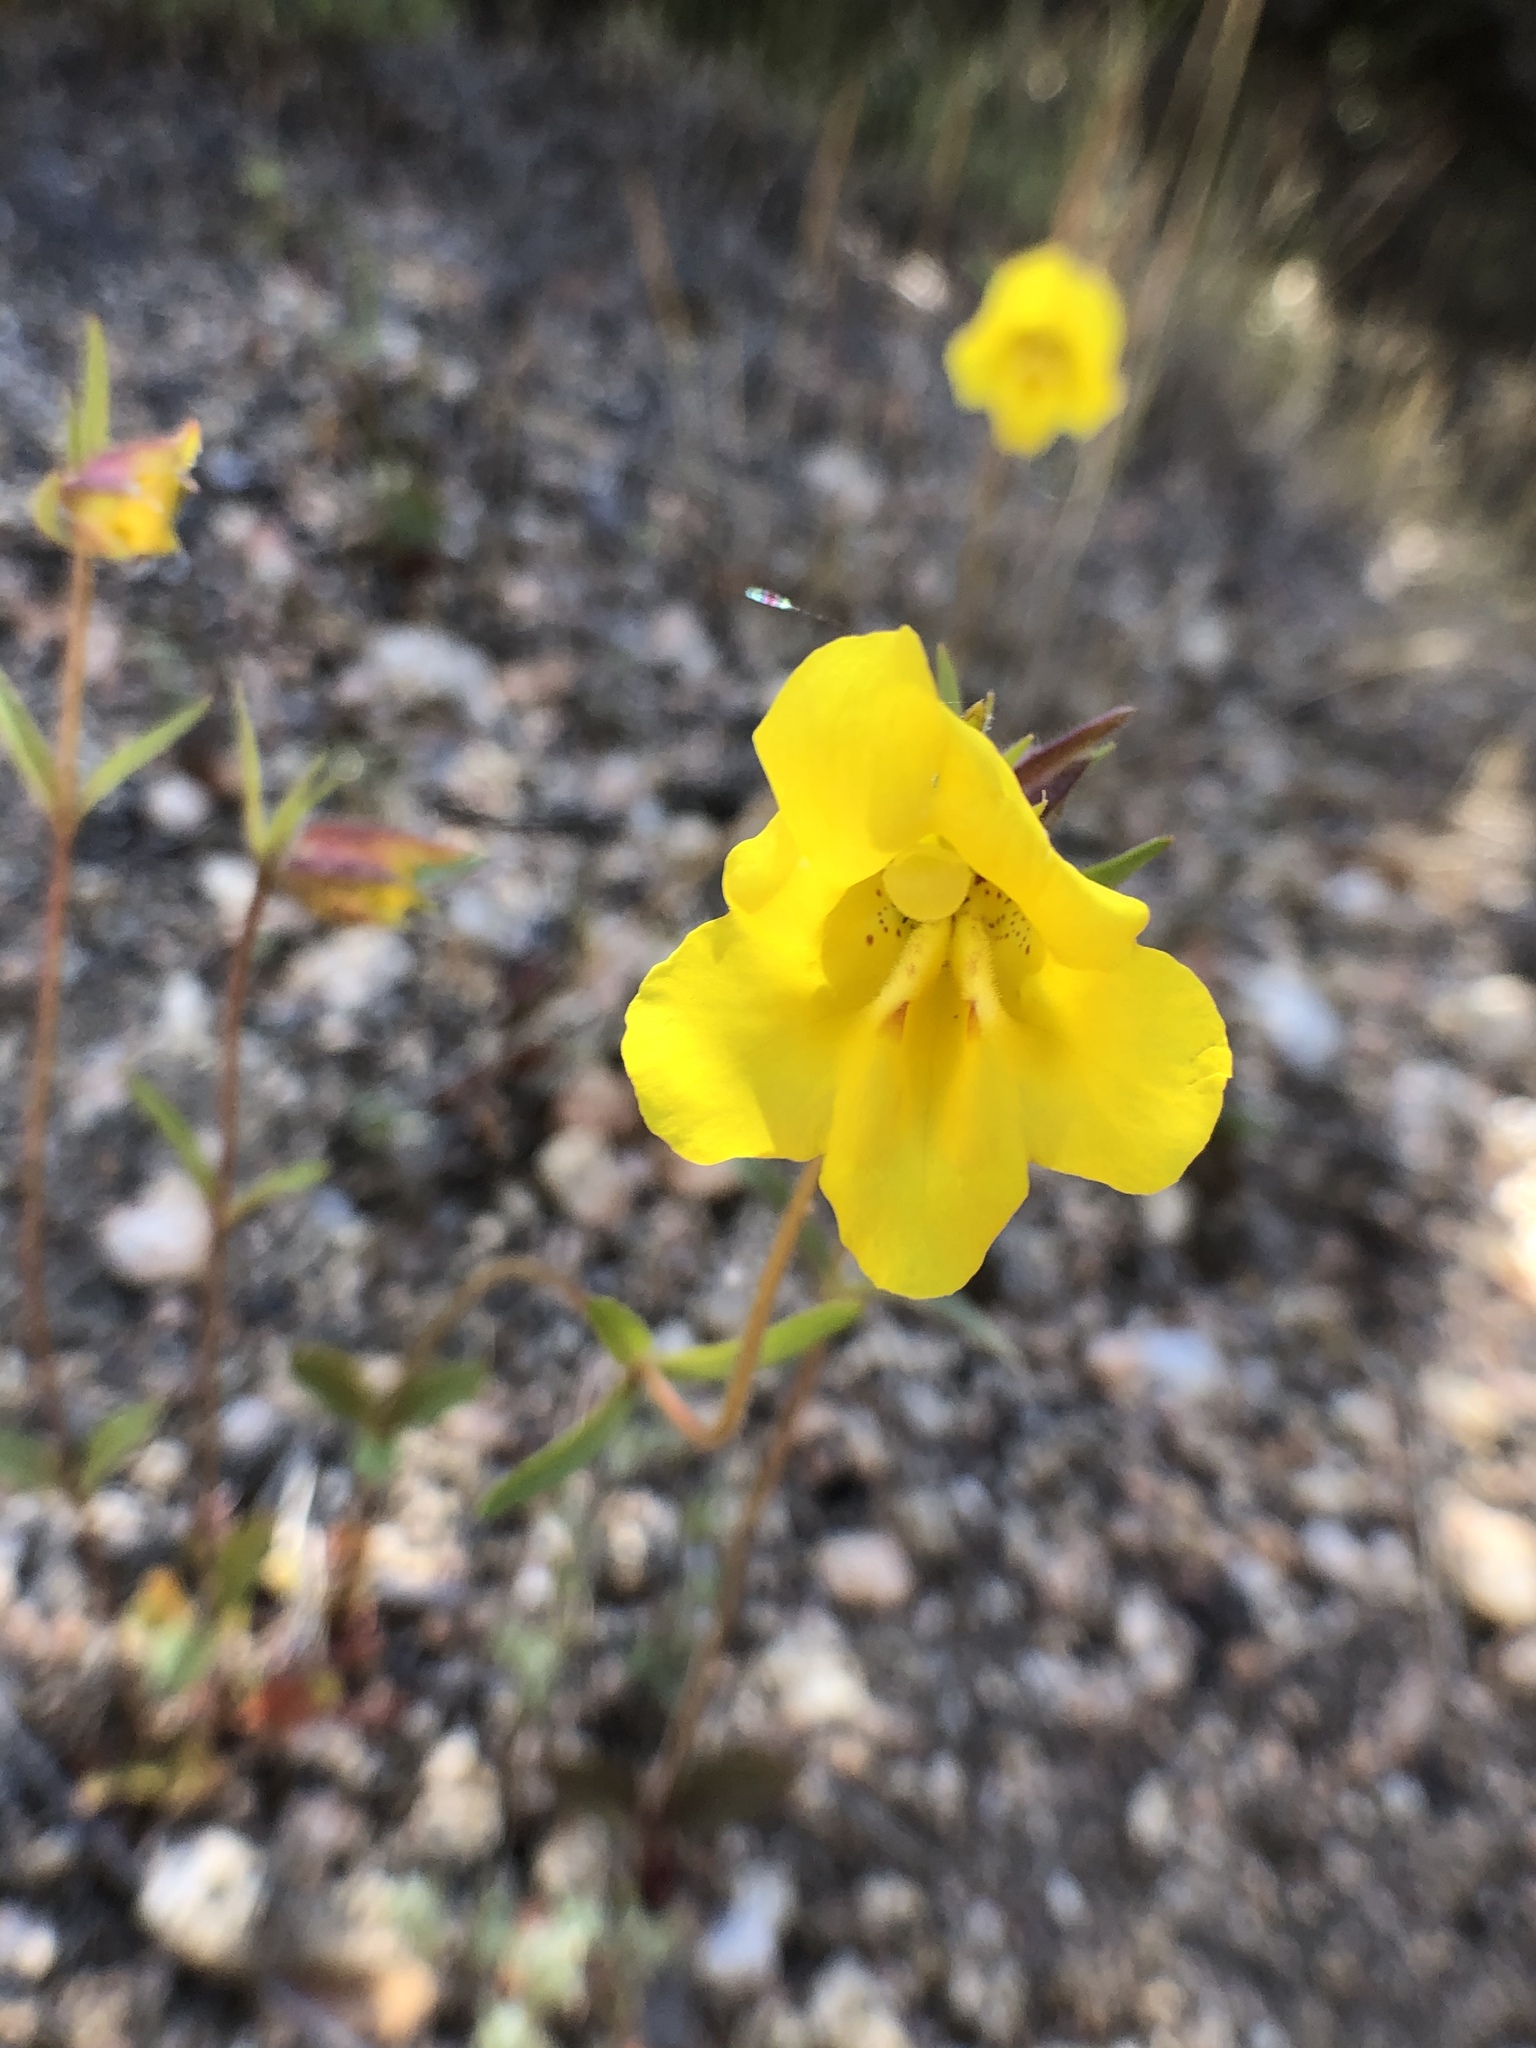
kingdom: Plantae
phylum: Tracheophyta
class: Magnoliopsida
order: Lamiales
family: Phrymaceae
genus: Diplacus
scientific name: Diplacus brevipes
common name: Wide-throat yellow monkey-flower
